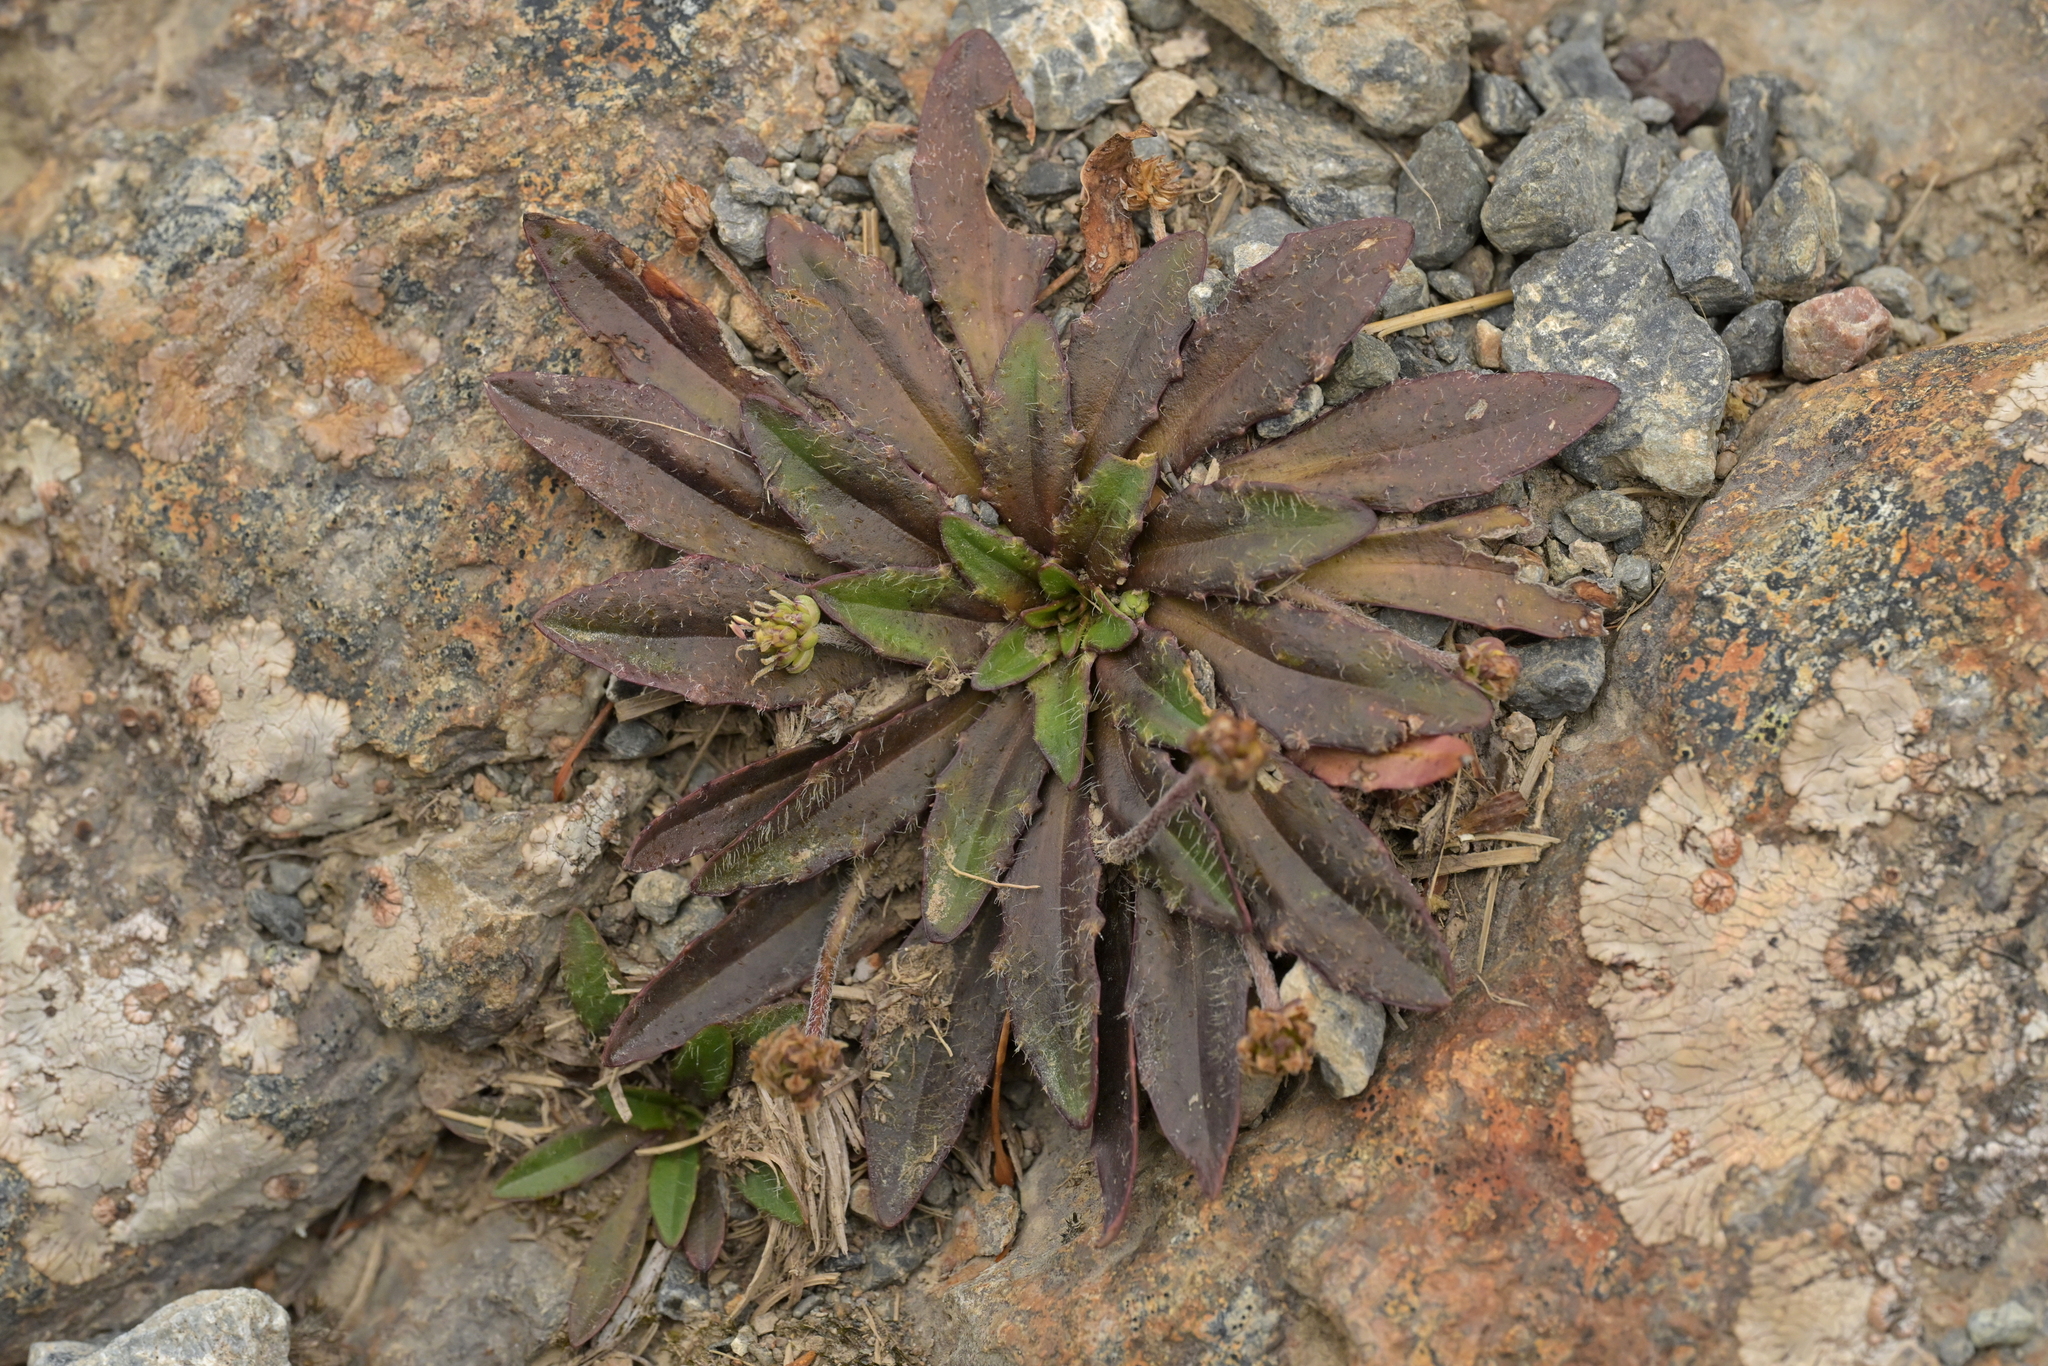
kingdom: Plantae
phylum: Tracheophyta
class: Magnoliopsida
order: Lamiales
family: Plantaginaceae
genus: Plantago
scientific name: Plantago novae-zelandiae
